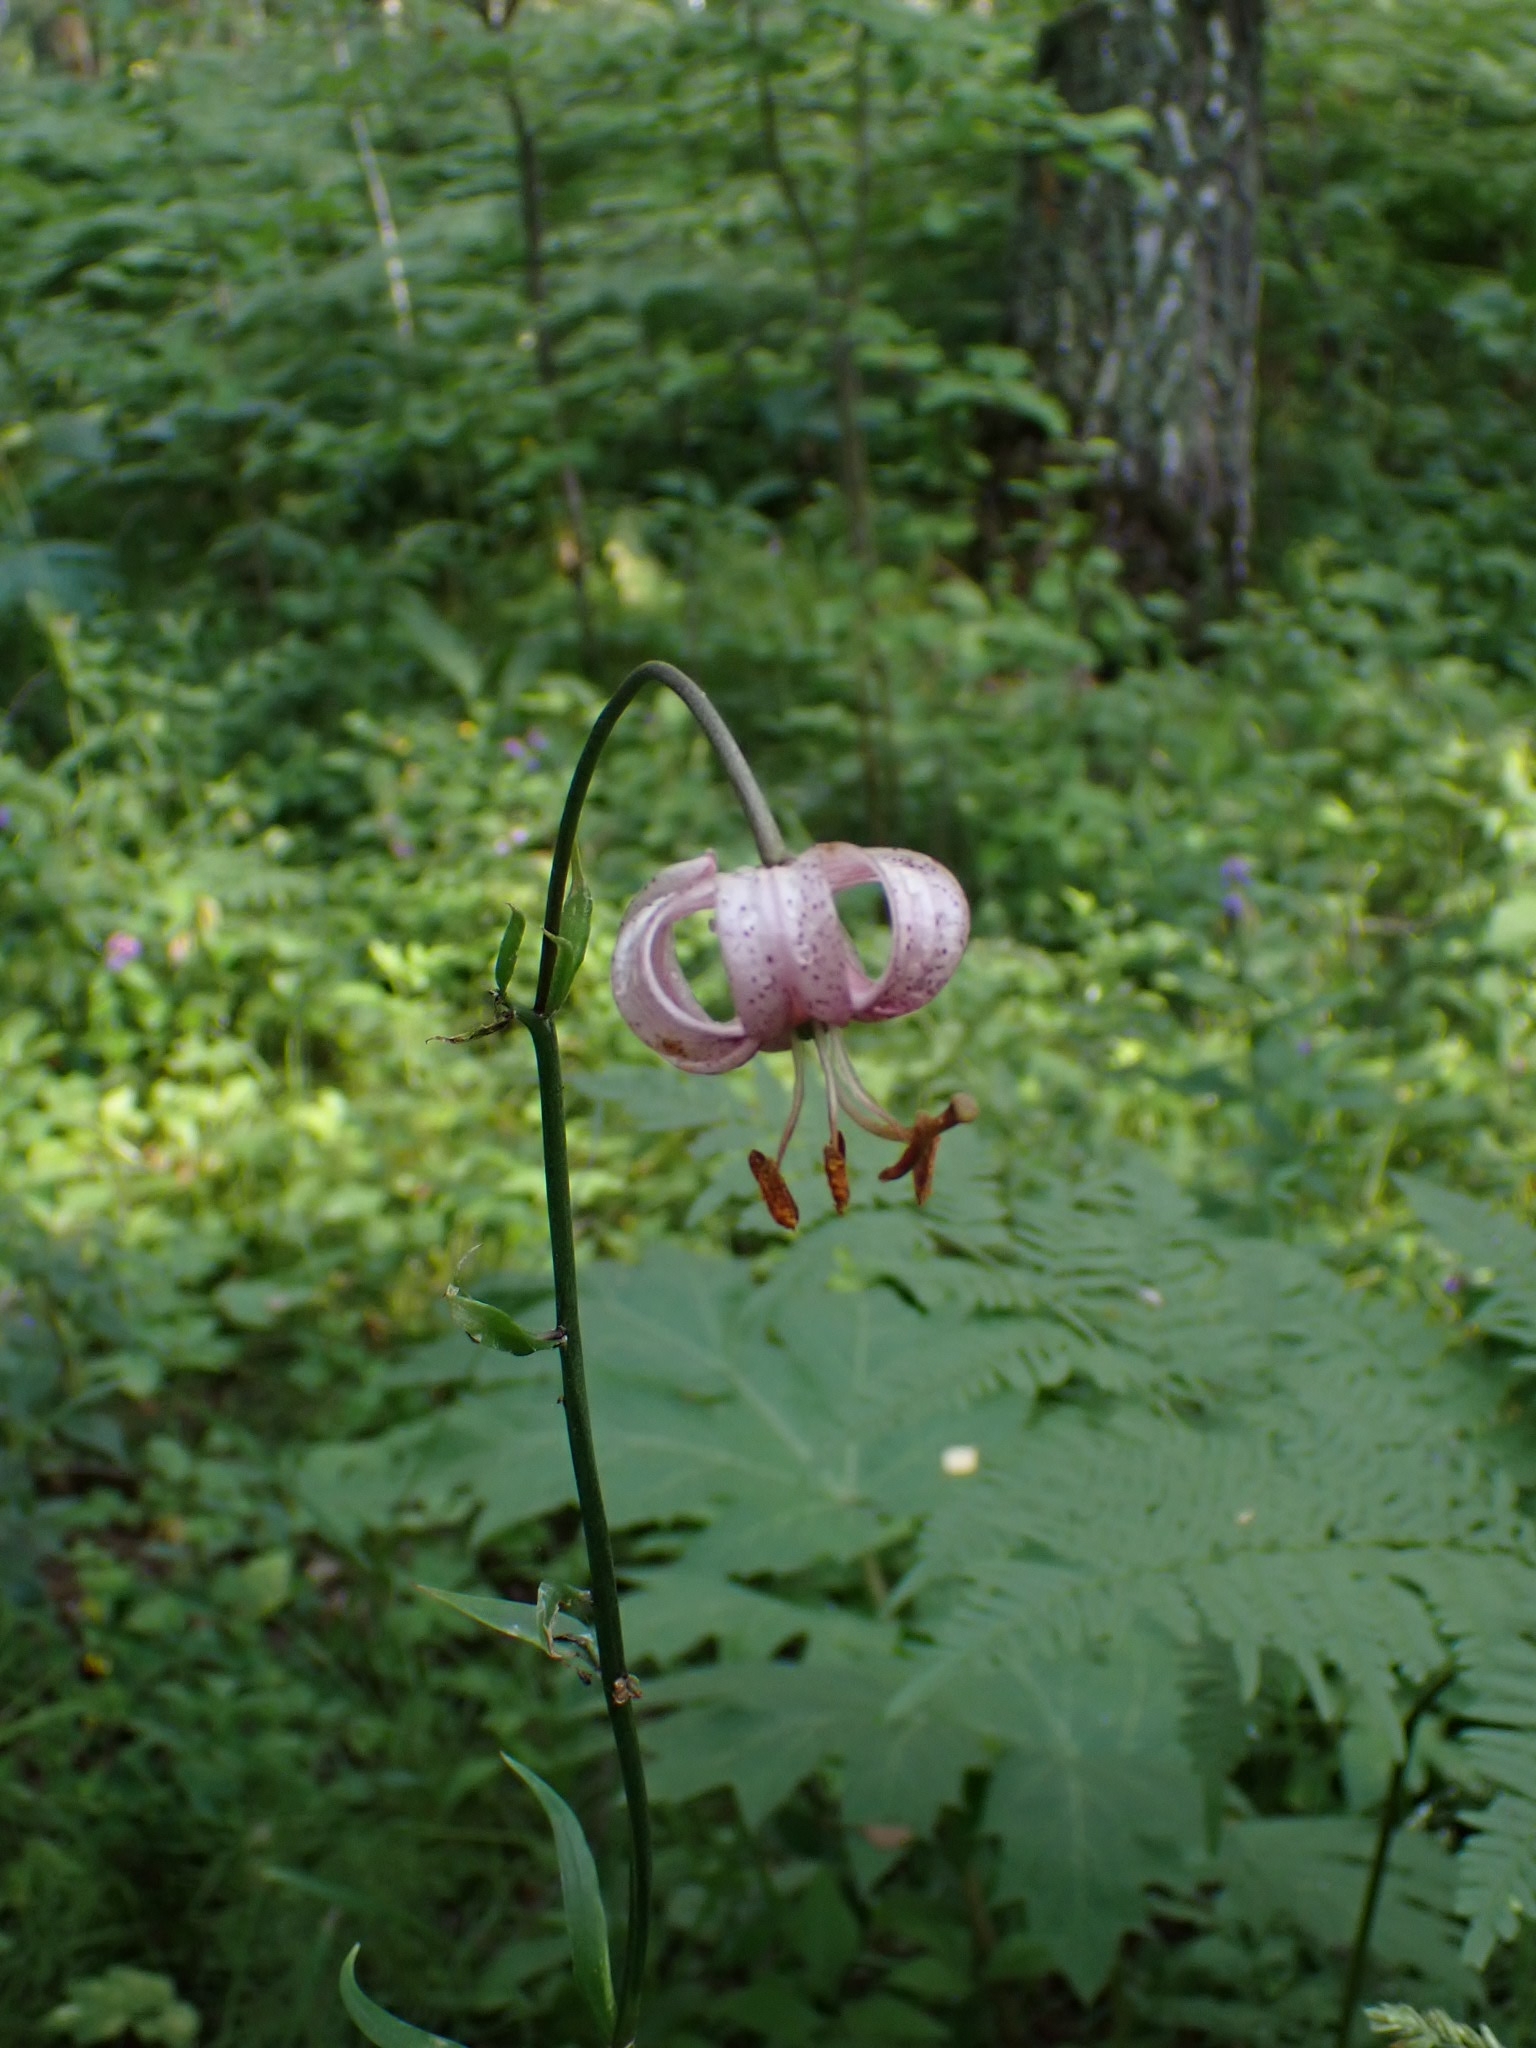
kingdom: Plantae
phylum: Tracheophyta
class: Liliopsida
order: Liliales
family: Liliaceae
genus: Lilium
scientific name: Lilium martagon
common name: Martagon lily
